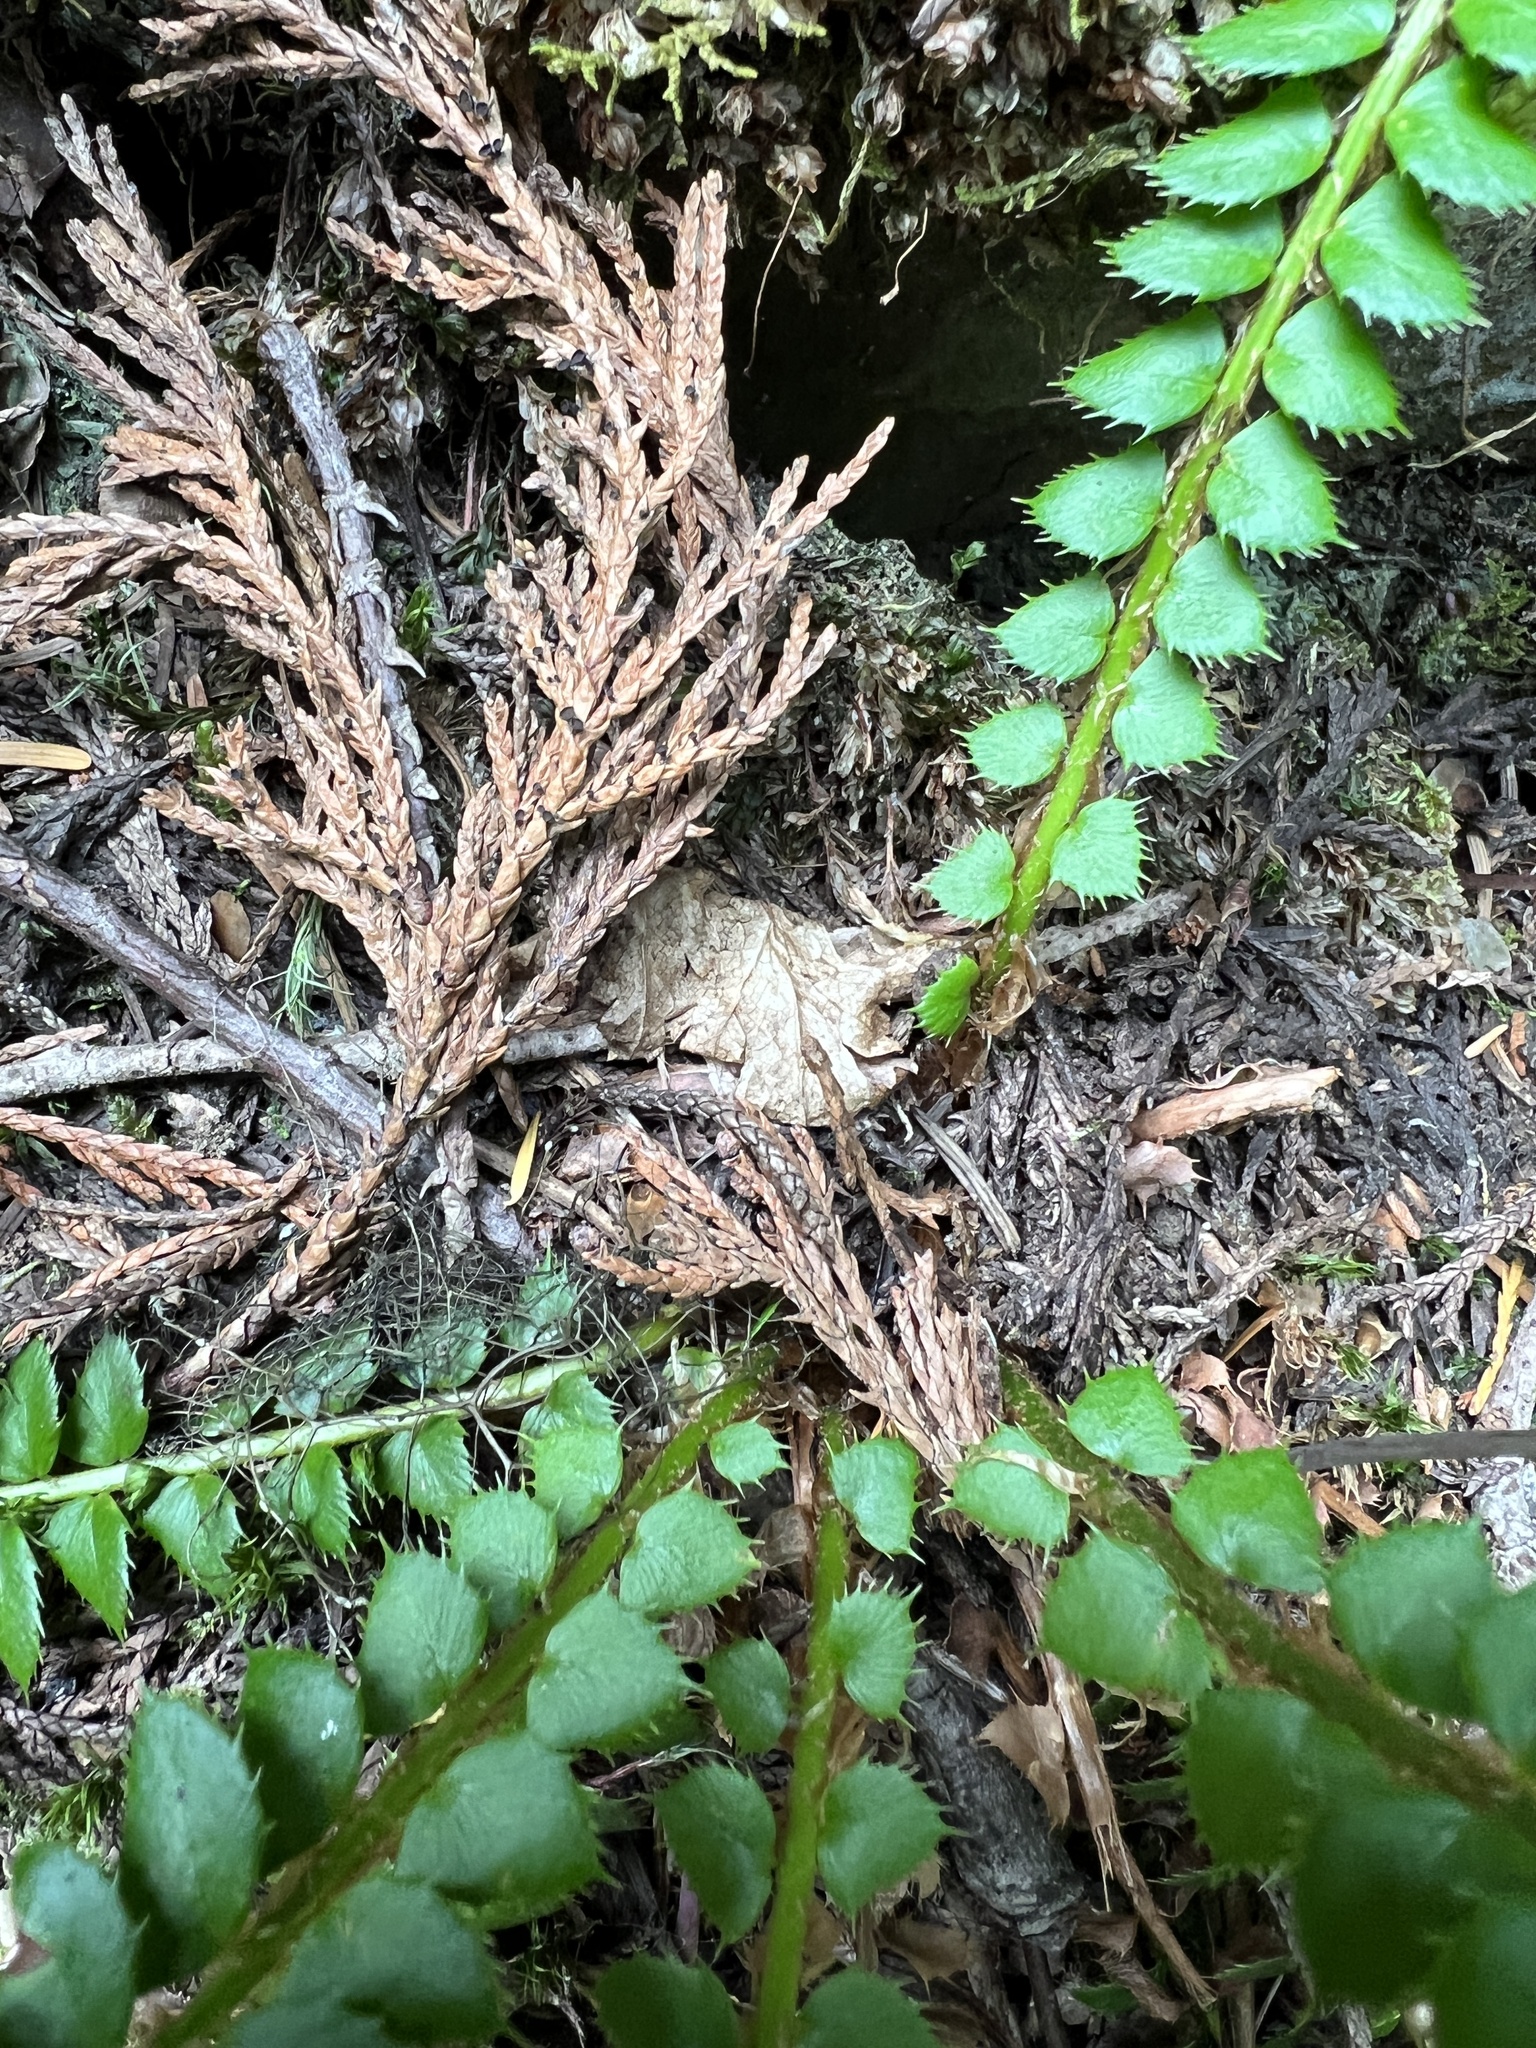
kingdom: Plantae
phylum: Tracheophyta
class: Polypodiopsida
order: Polypodiales
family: Dryopteridaceae
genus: Polystichum
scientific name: Polystichum lonchitis
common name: Holly fern
